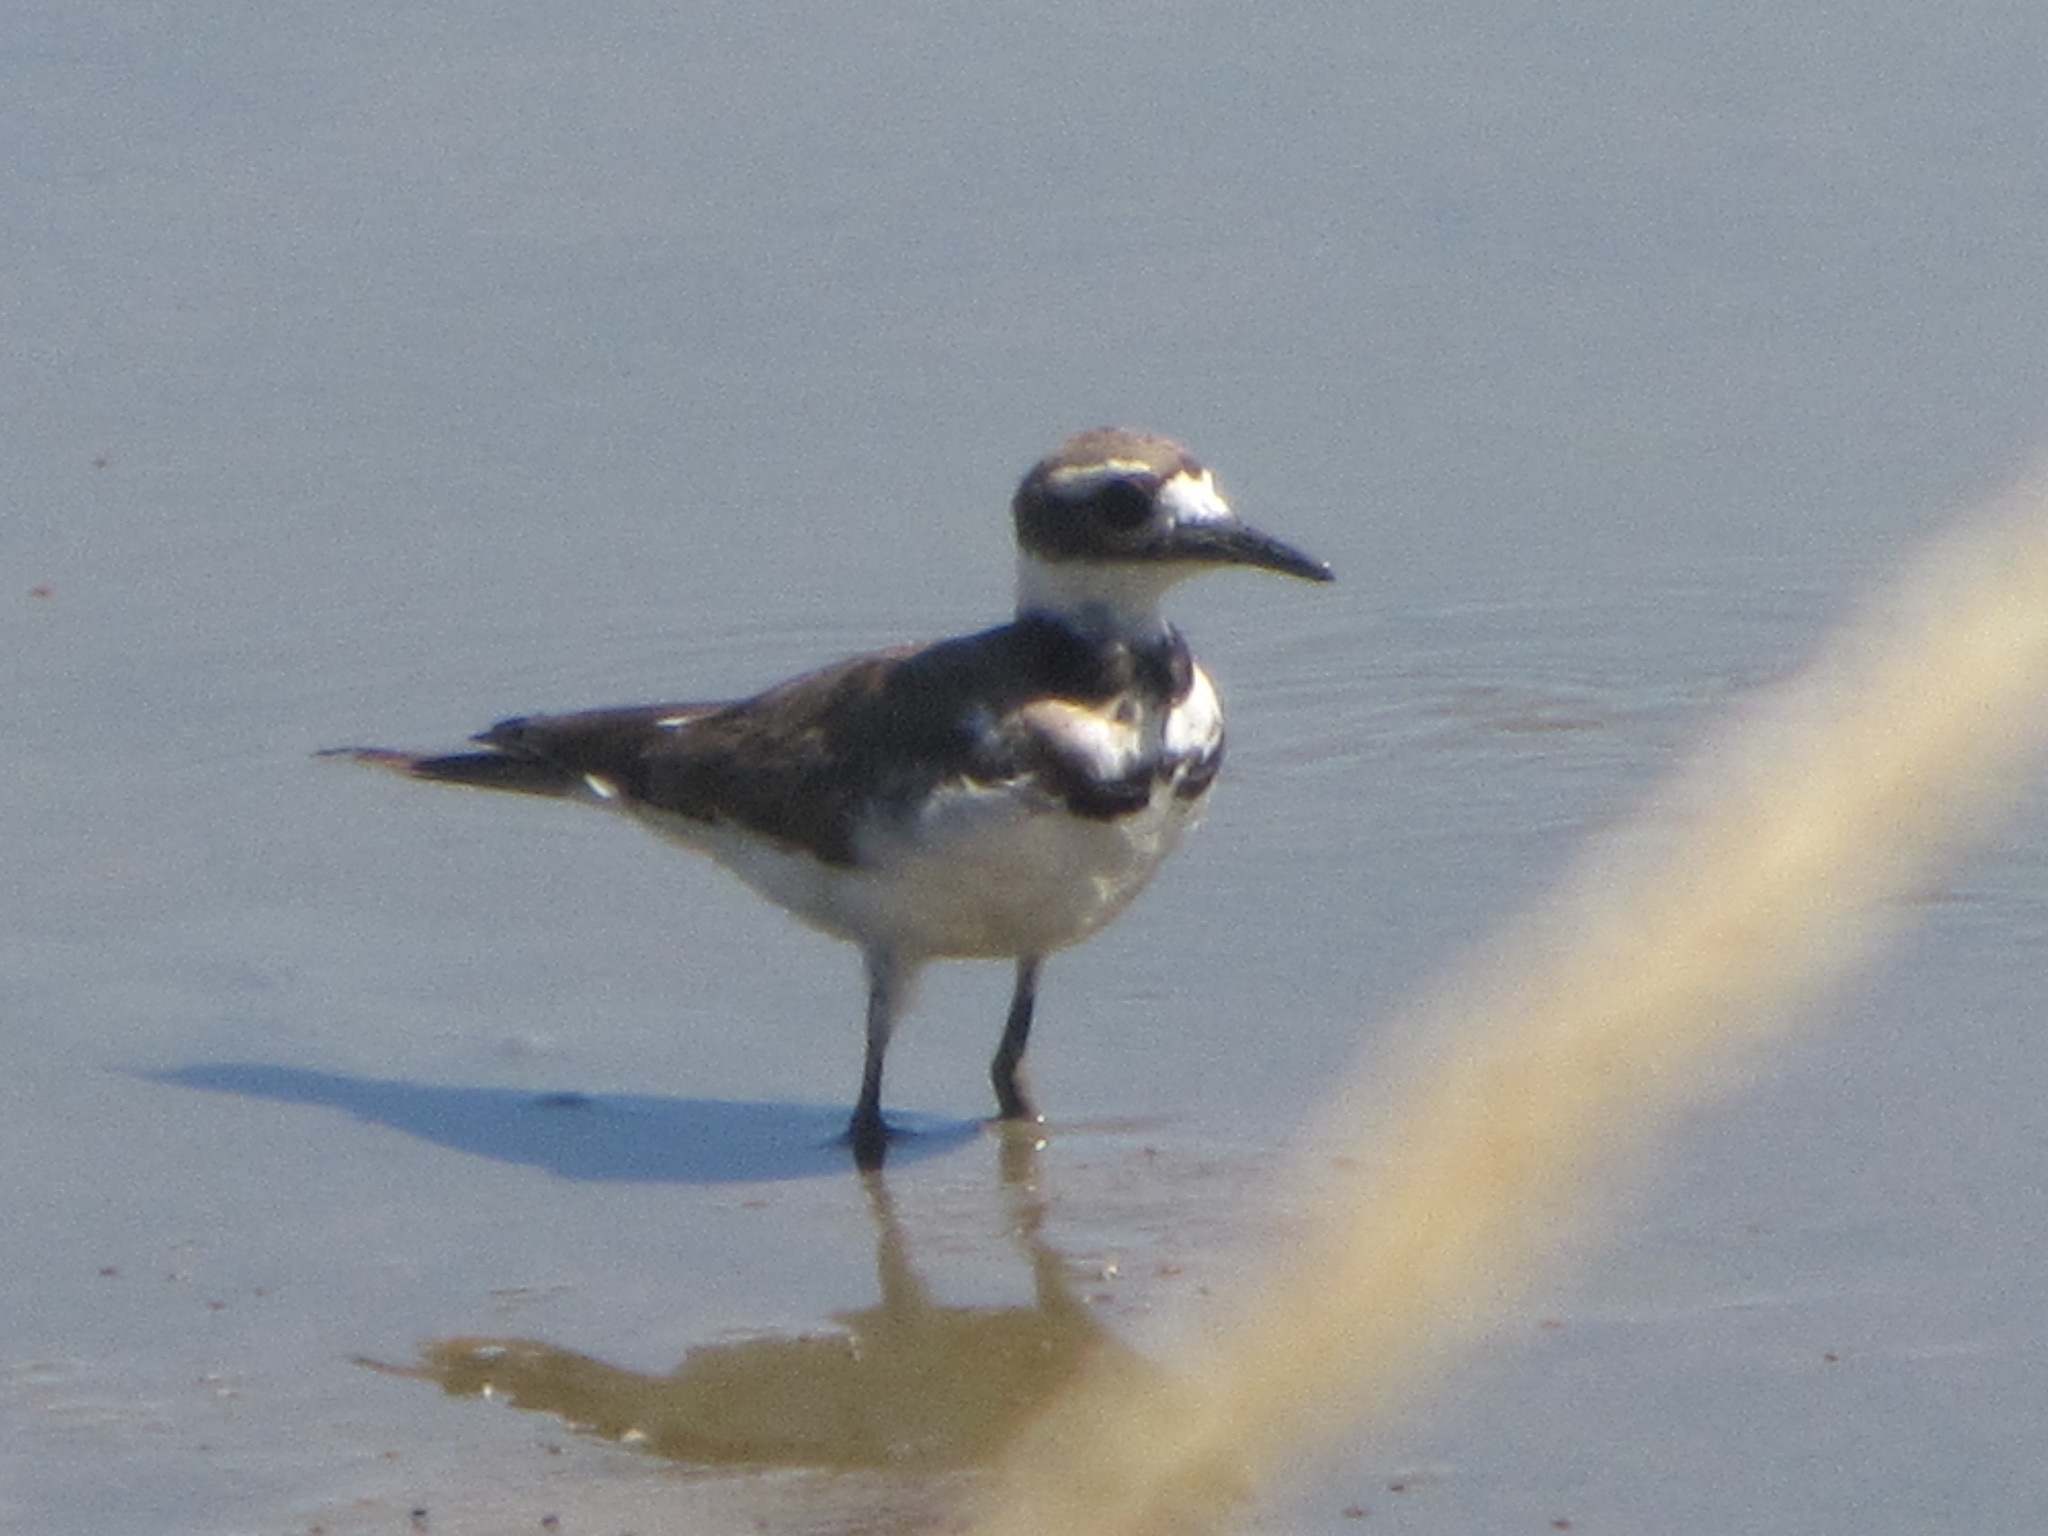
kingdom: Animalia
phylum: Chordata
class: Aves
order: Charadriiformes
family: Charadriidae
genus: Charadrius
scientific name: Charadrius vociferus
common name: Killdeer
